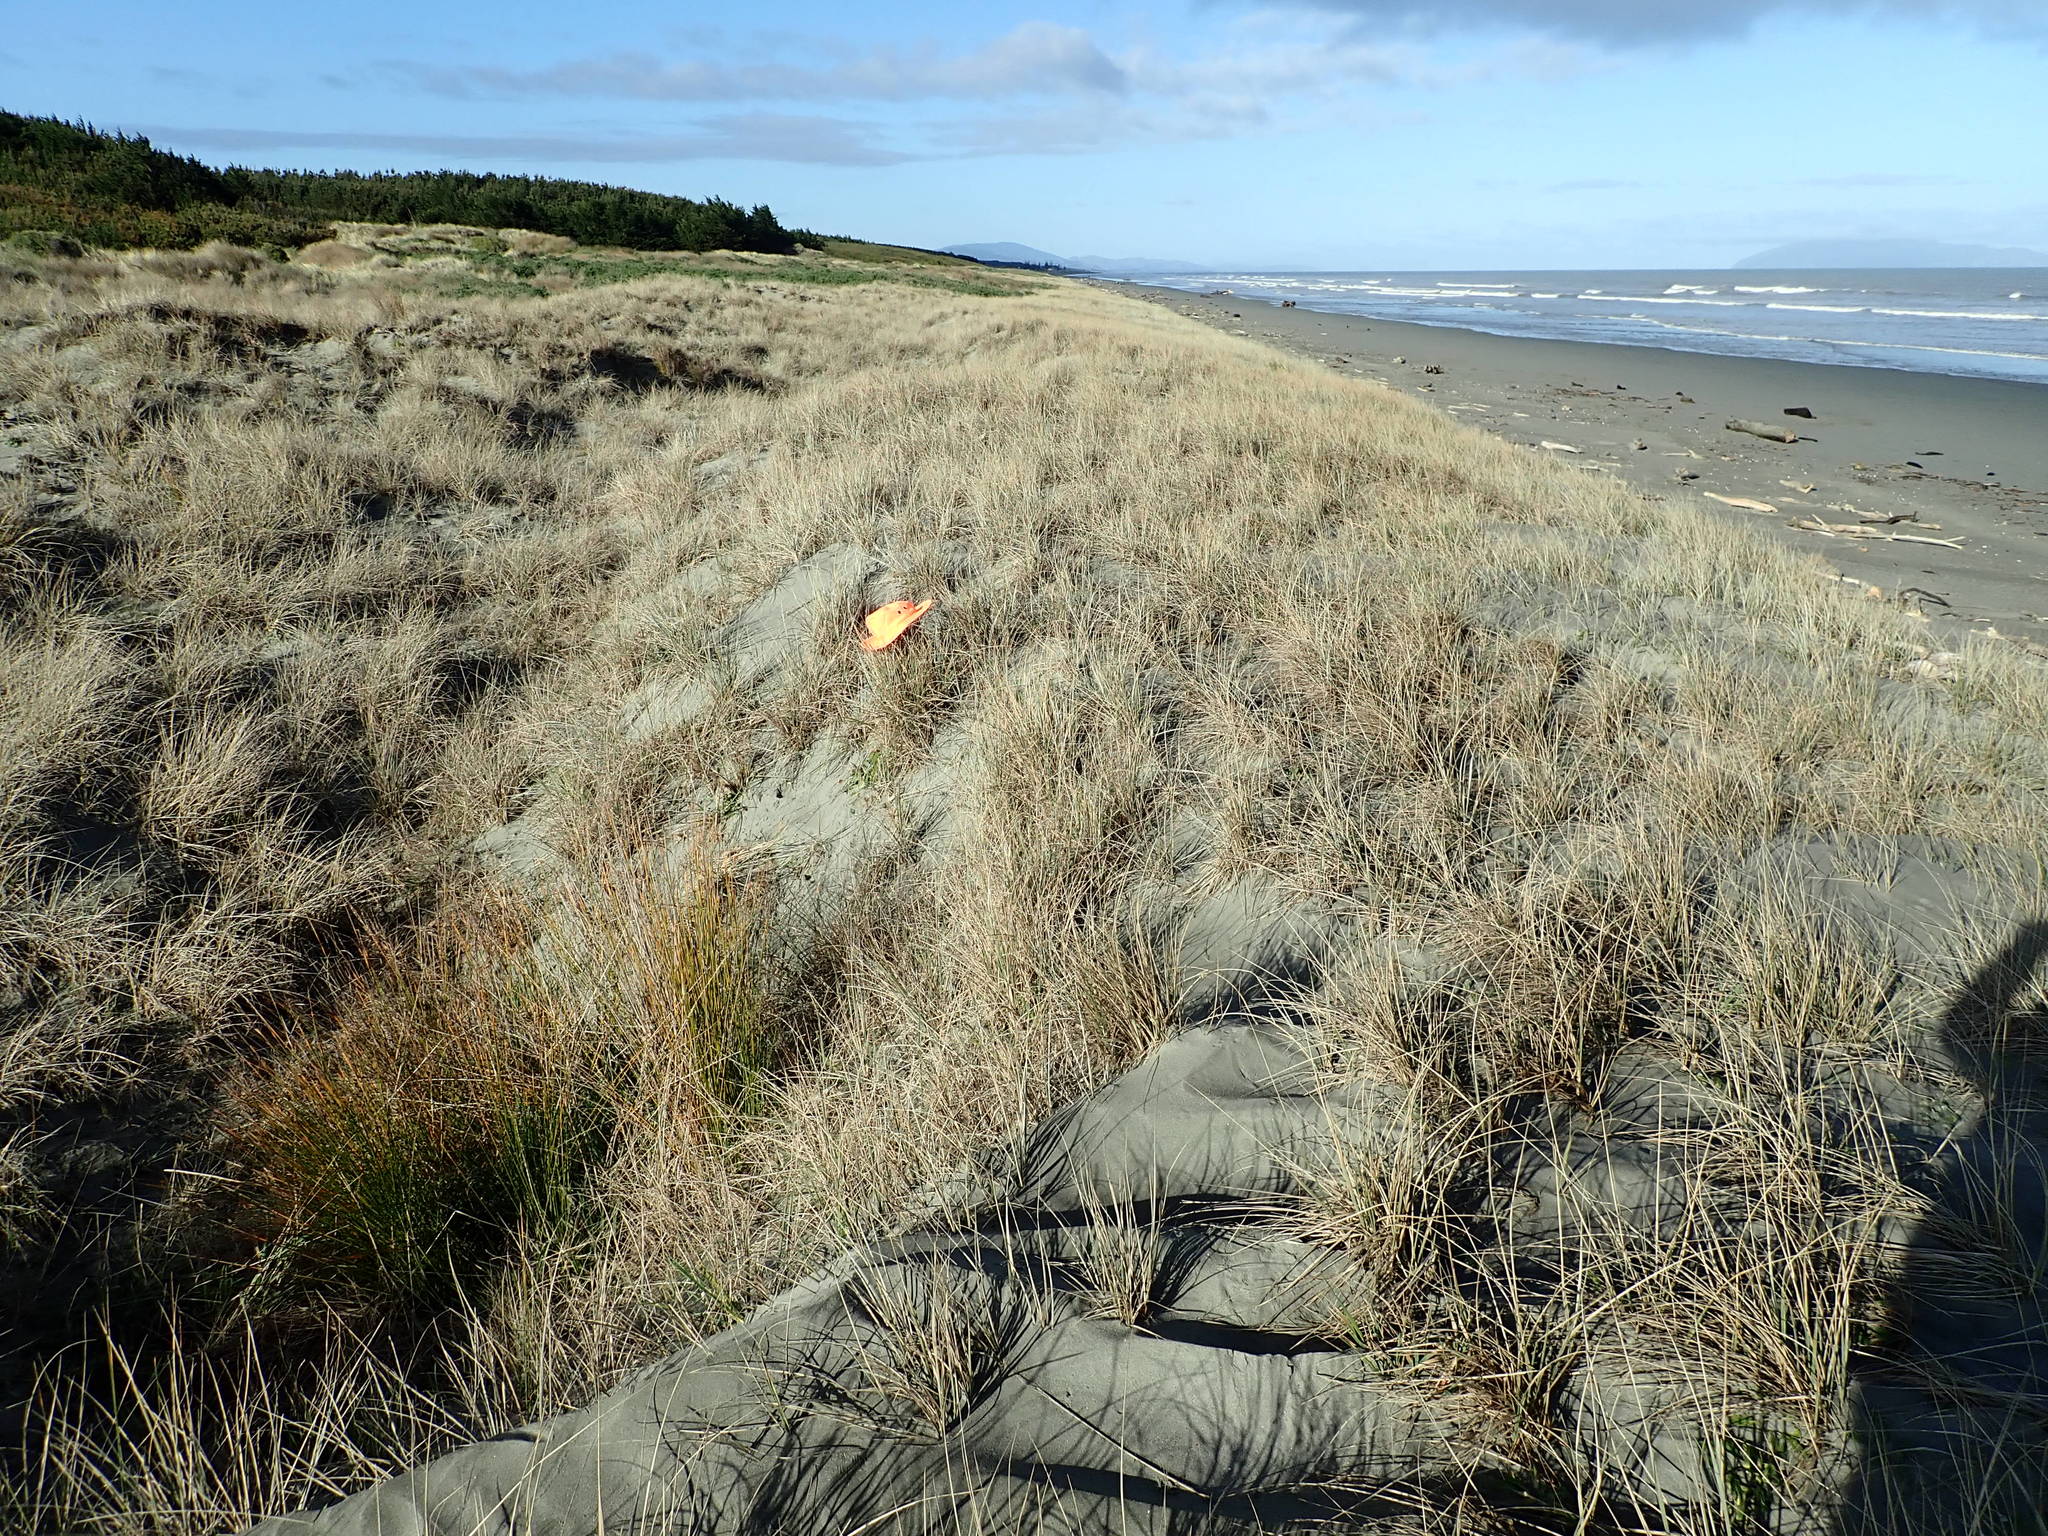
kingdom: Animalia
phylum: Arthropoda
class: Arachnida
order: Araneae
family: Theridiidae
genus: Latrodectus
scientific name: Latrodectus katipo
